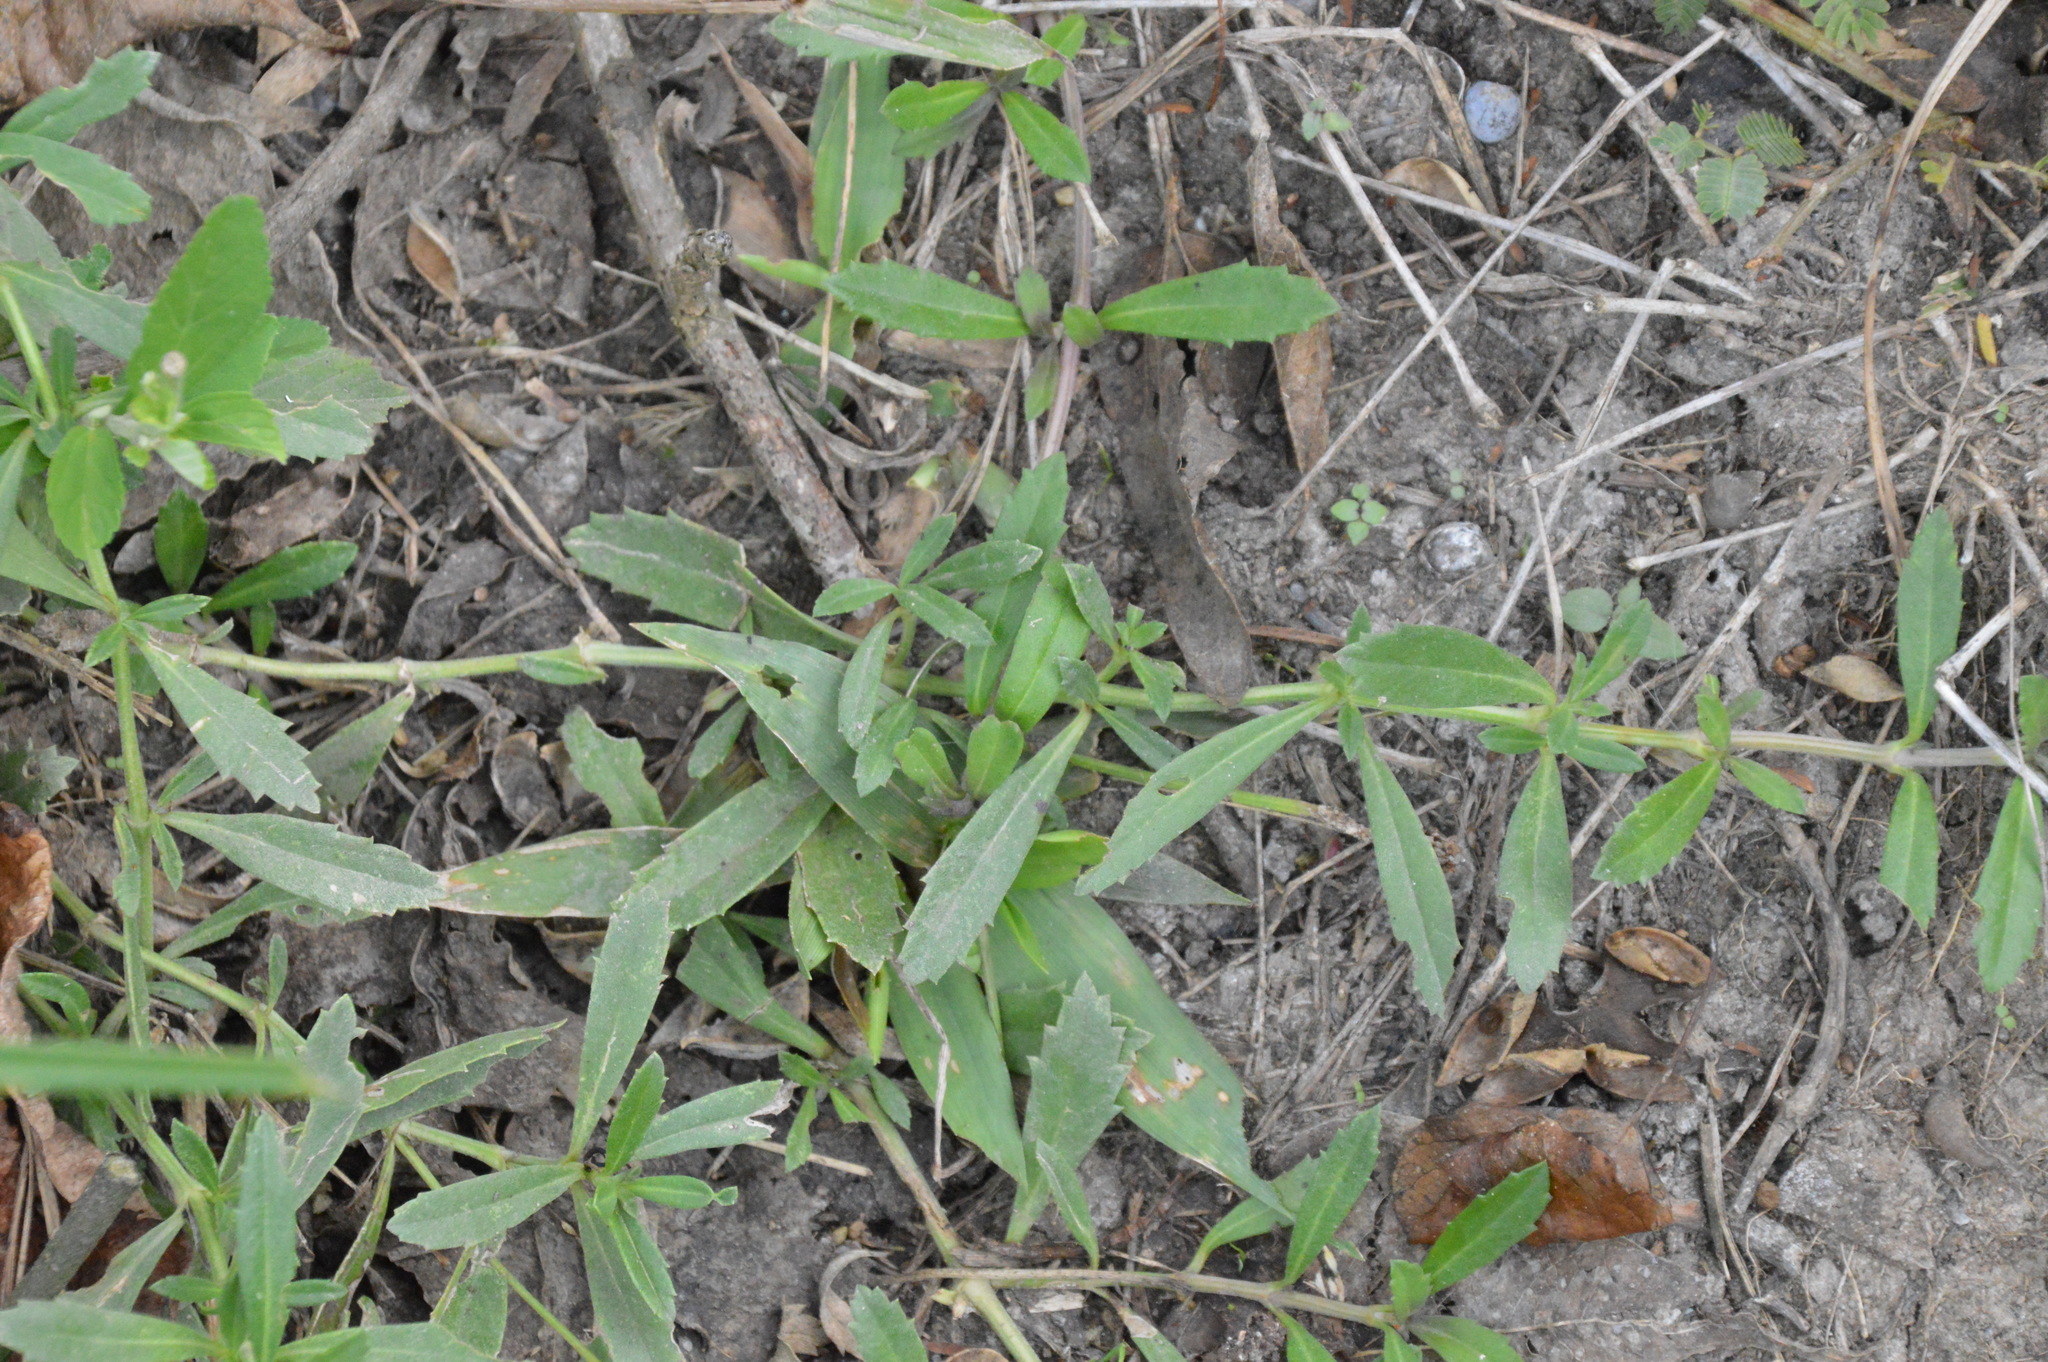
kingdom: Plantae
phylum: Tracheophyta
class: Magnoliopsida
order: Lamiales
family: Verbenaceae
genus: Phyla
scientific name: Phyla nodiflora
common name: Frogfruit
